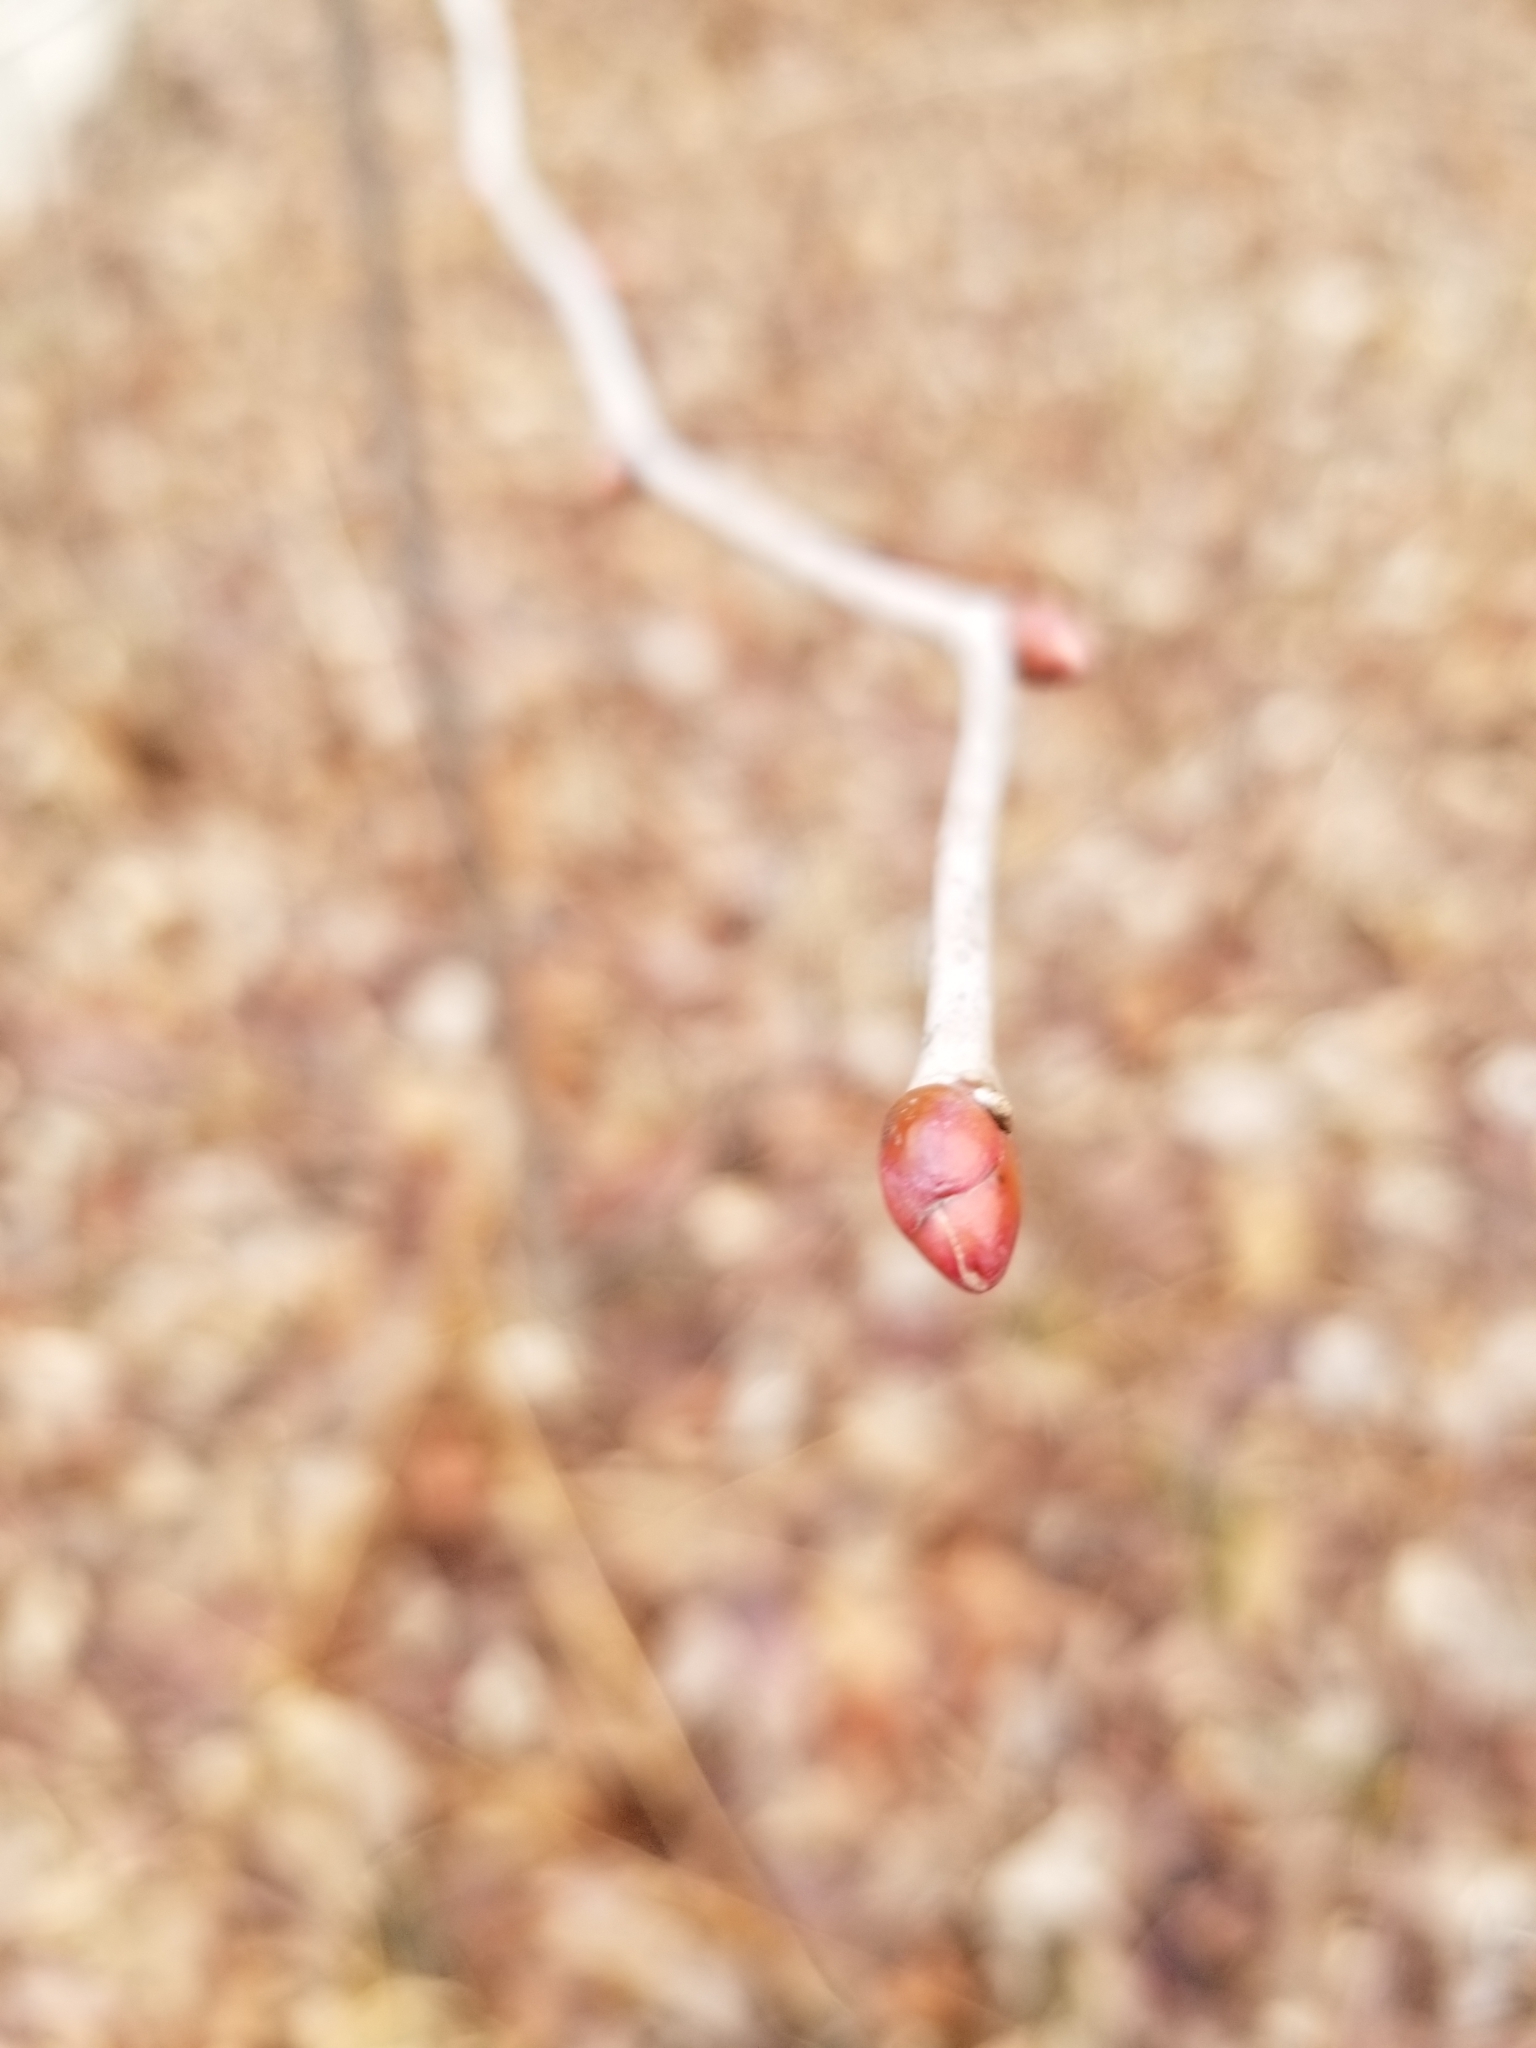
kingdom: Plantae
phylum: Tracheophyta
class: Magnoliopsida
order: Malvales
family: Malvaceae
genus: Tilia
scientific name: Tilia americana
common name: Basswood
